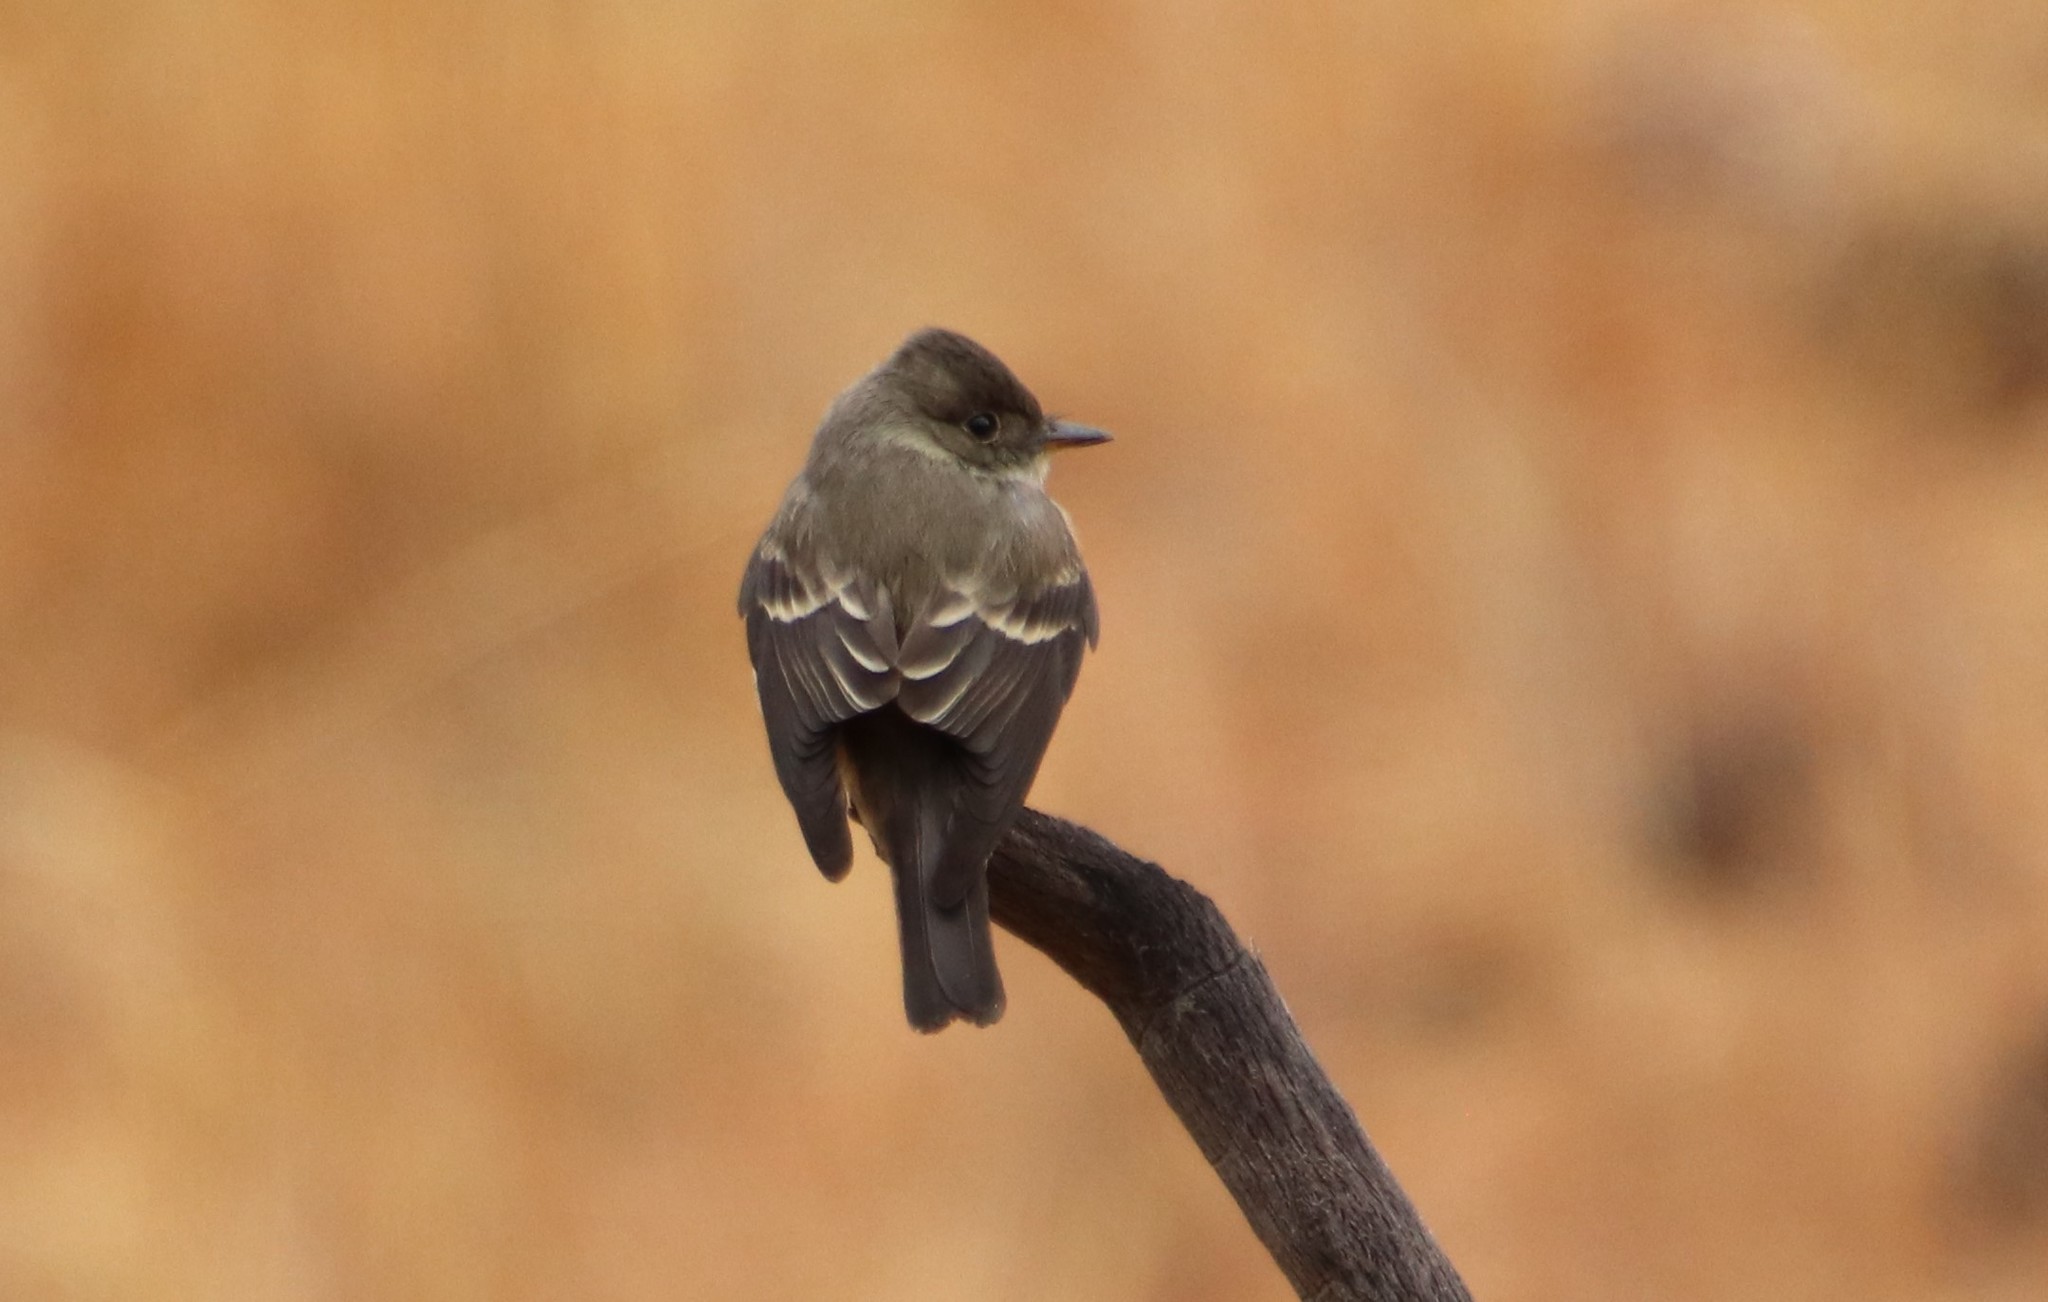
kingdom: Animalia
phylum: Chordata
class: Aves
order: Passeriformes
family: Tyrannidae
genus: Contopus
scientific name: Contopus sordidulus
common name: Western wood-pewee
